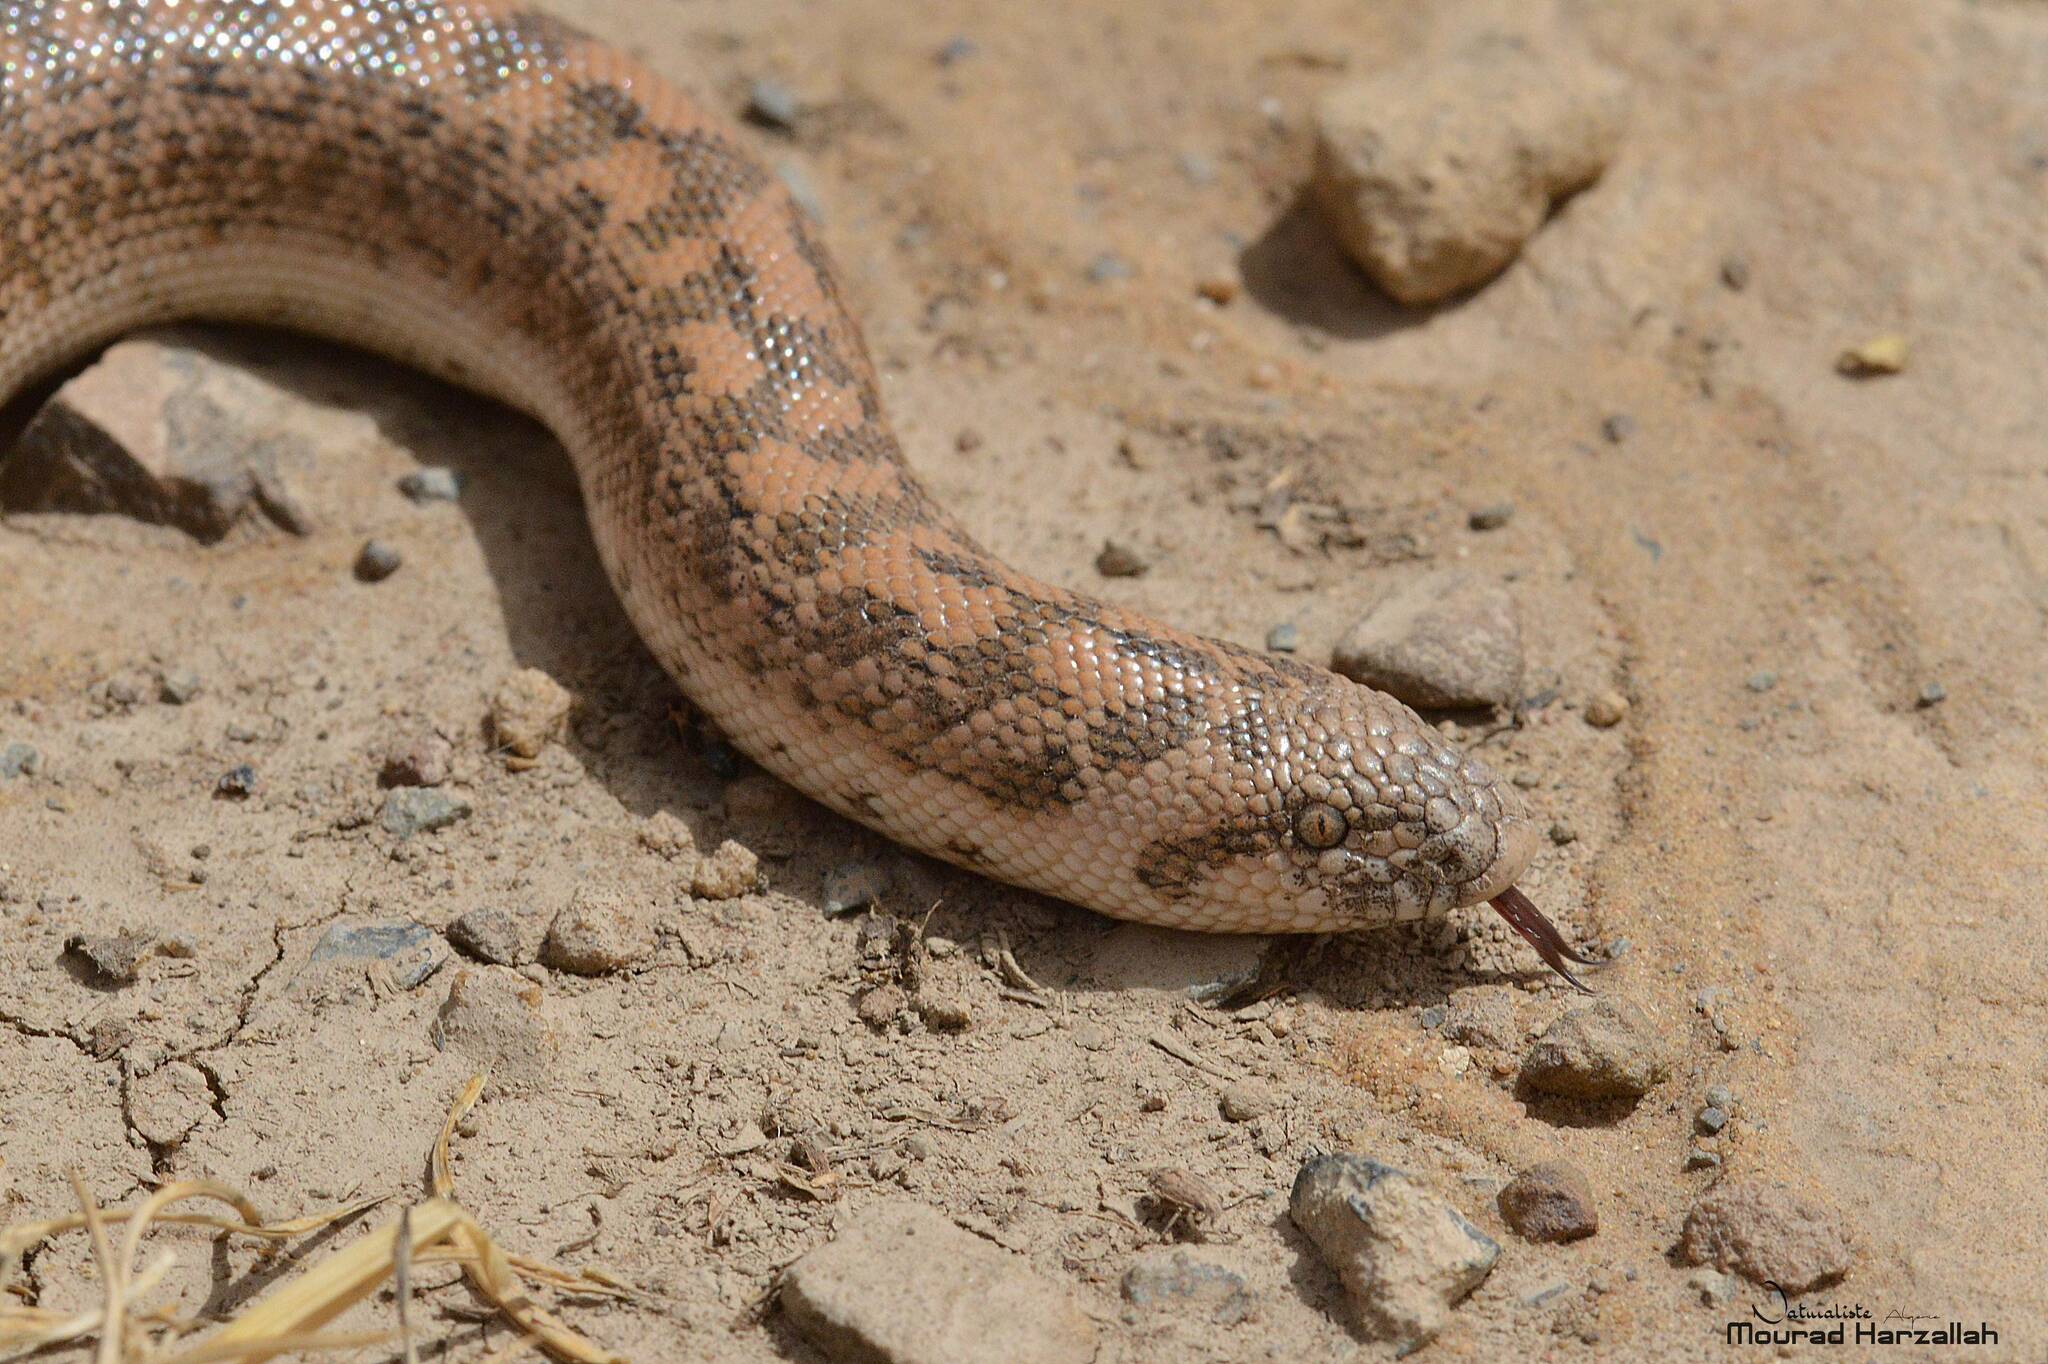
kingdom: Animalia
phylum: Chordata
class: Squamata
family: Boidae
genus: Eryx
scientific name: Eryx jaculus
